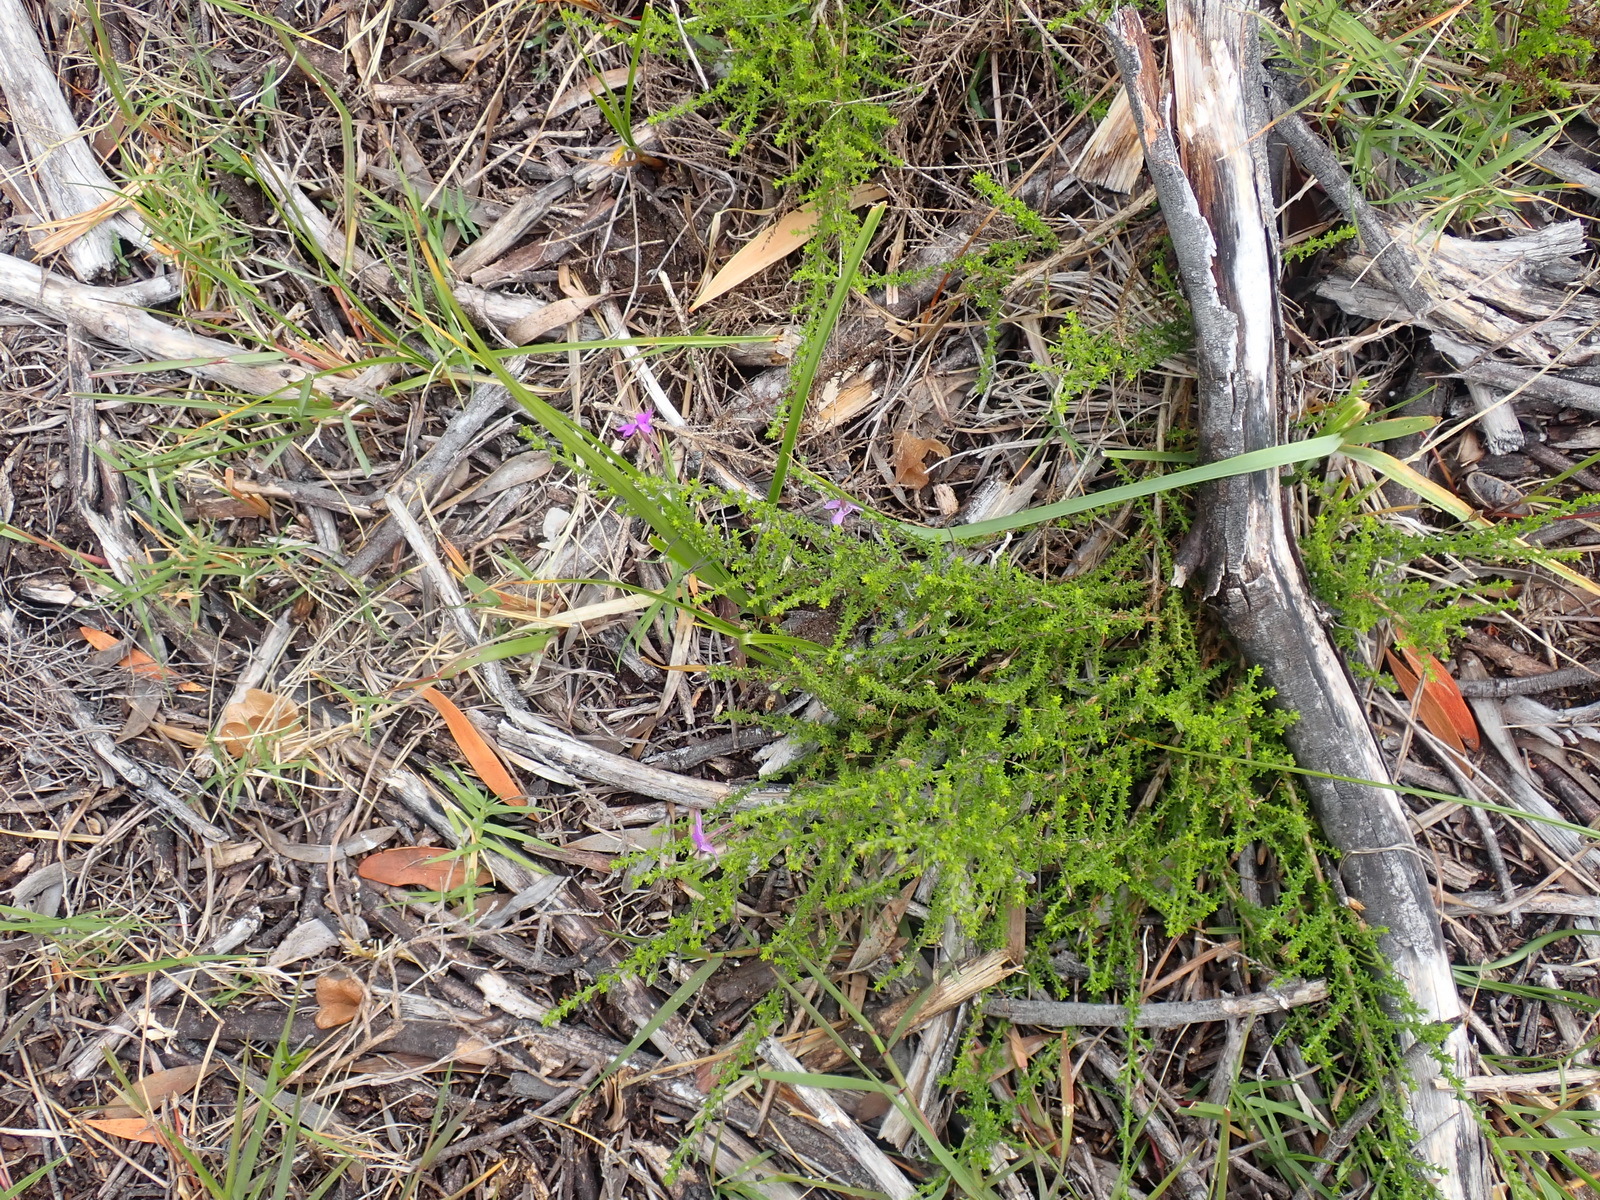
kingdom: Plantae
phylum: Tracheophyta
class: Magnoliopsida
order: Lamiales
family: Scrophulariaceae
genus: Jamesbrittenia
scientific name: Jamesbrittenia tenuifolia
